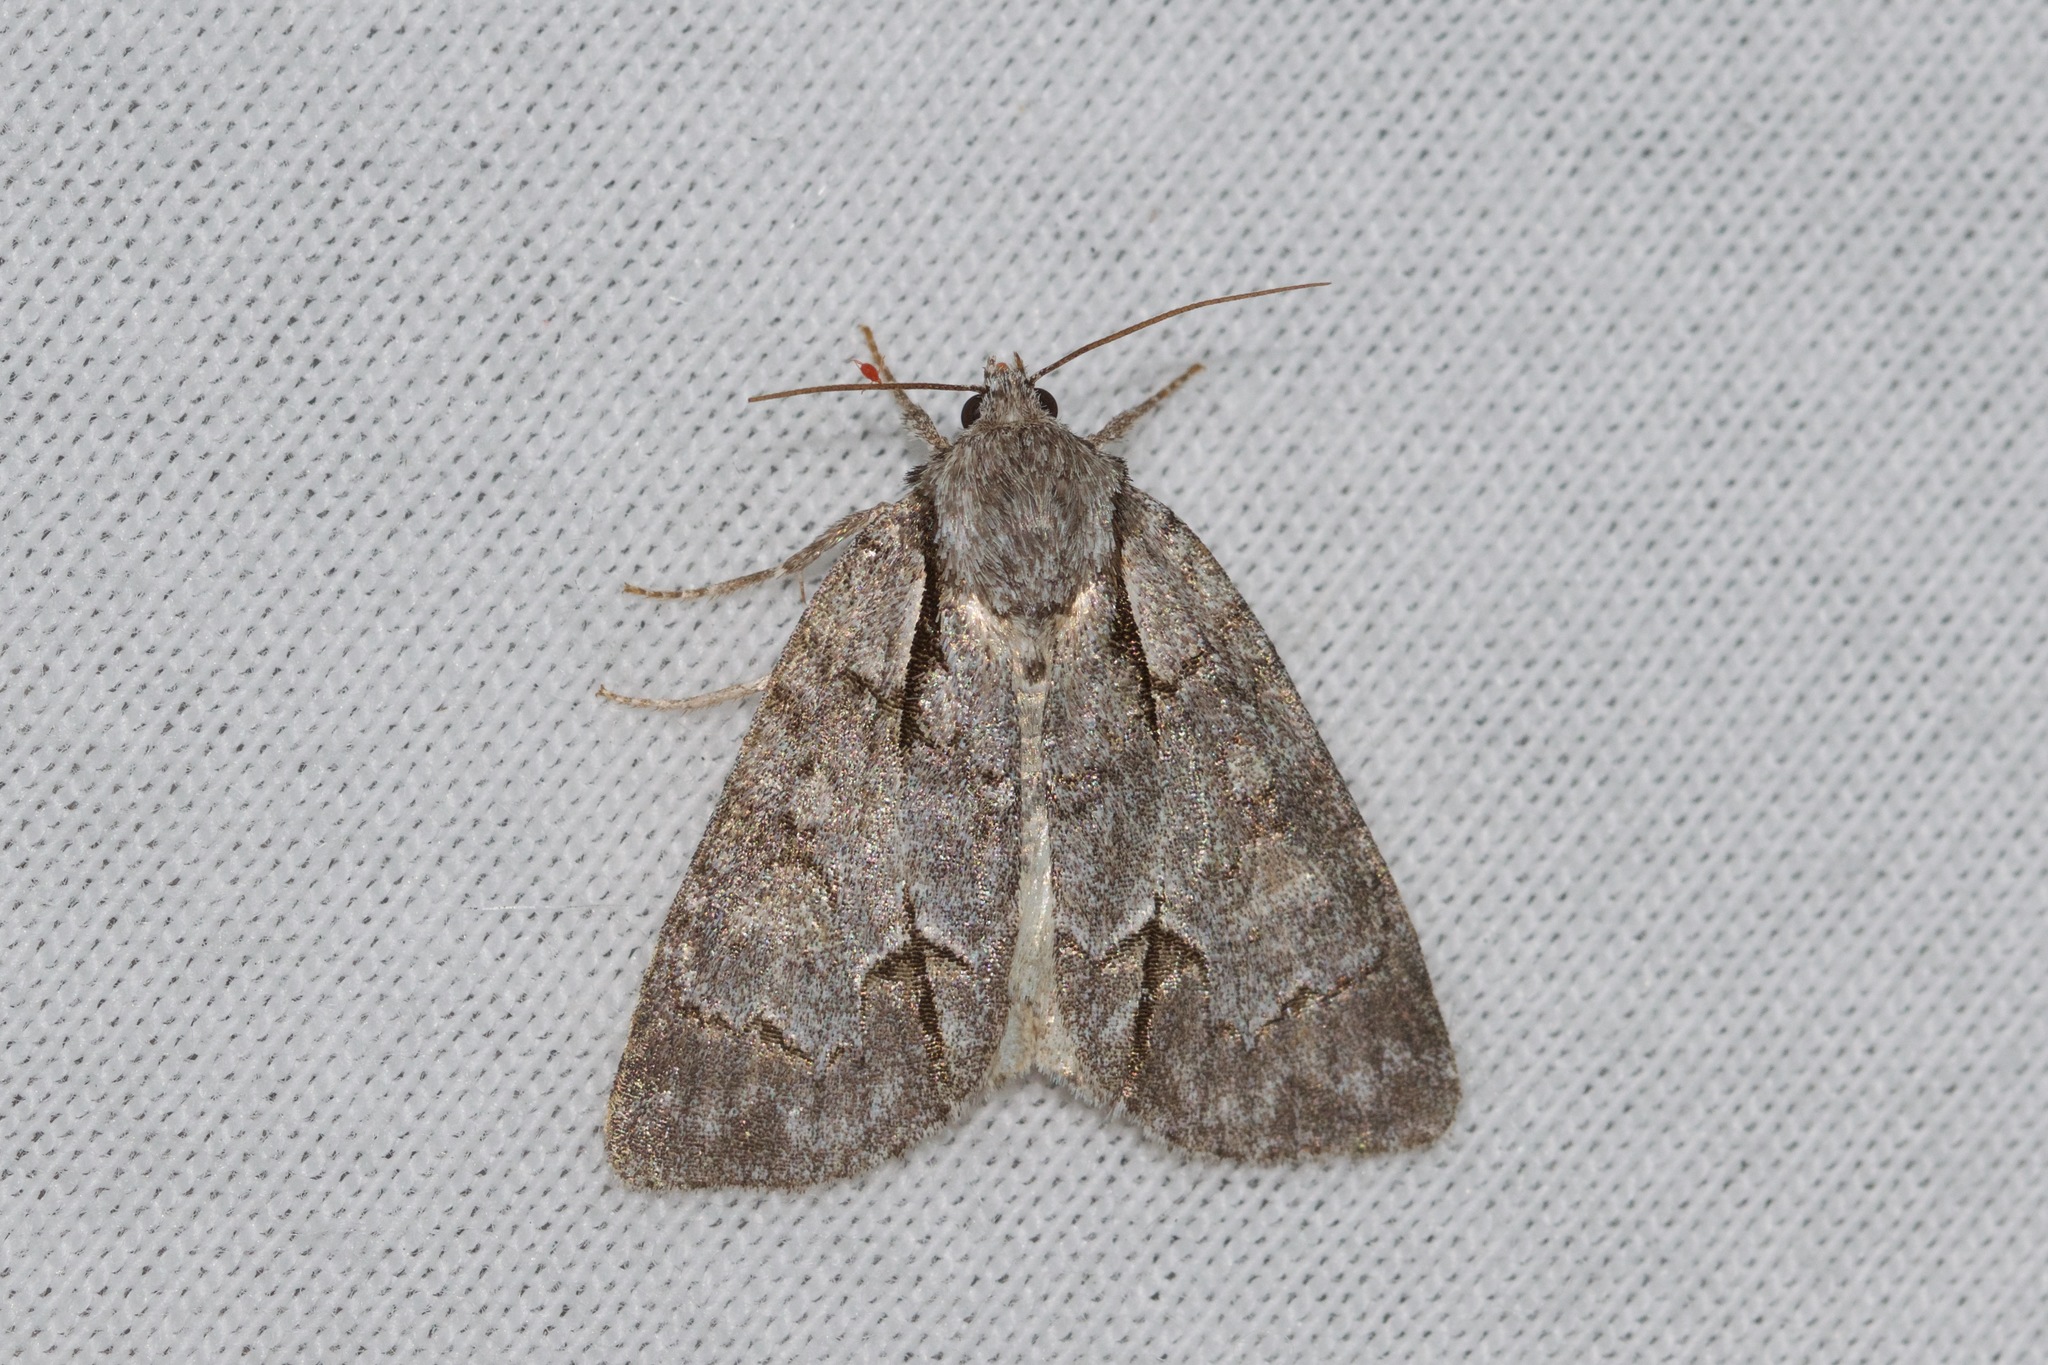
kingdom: Animalia
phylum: Arthropoda
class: Insecta
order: Lepidoptera
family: Noctuidae
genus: Acronicta
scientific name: Acronicta grisea
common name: Gray dagger
